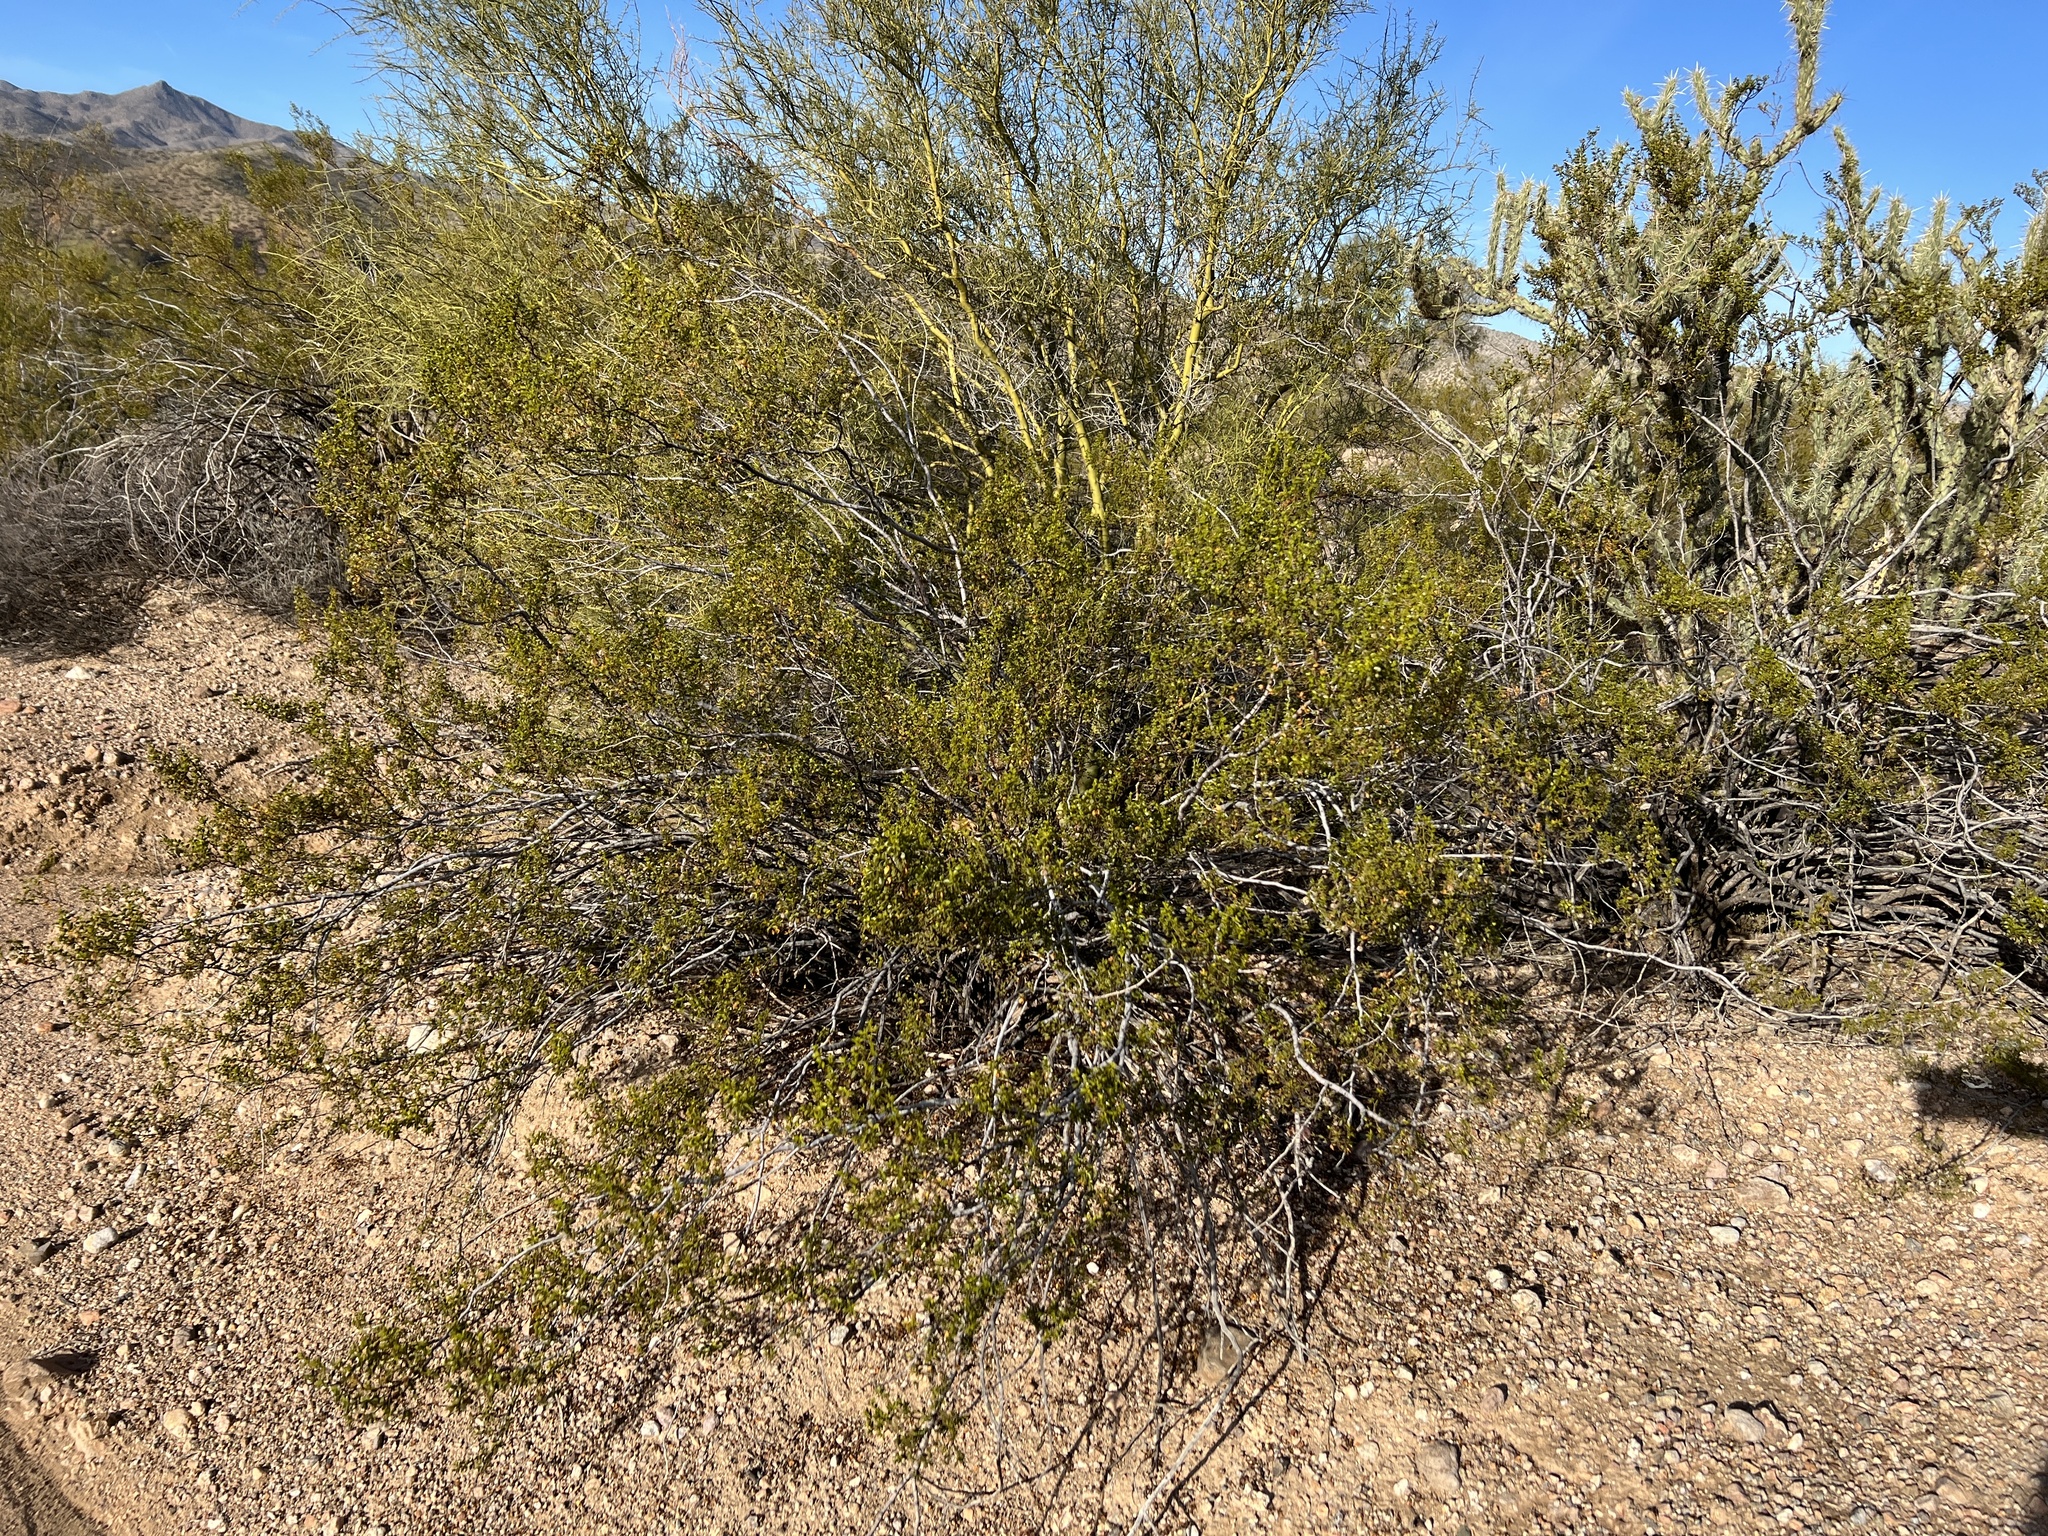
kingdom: Plantae
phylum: Tracheophyta
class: Magnoliopsida
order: Zygophyllales
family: Zygophyllaceae
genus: Larrea
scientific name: Larrea tridentata
